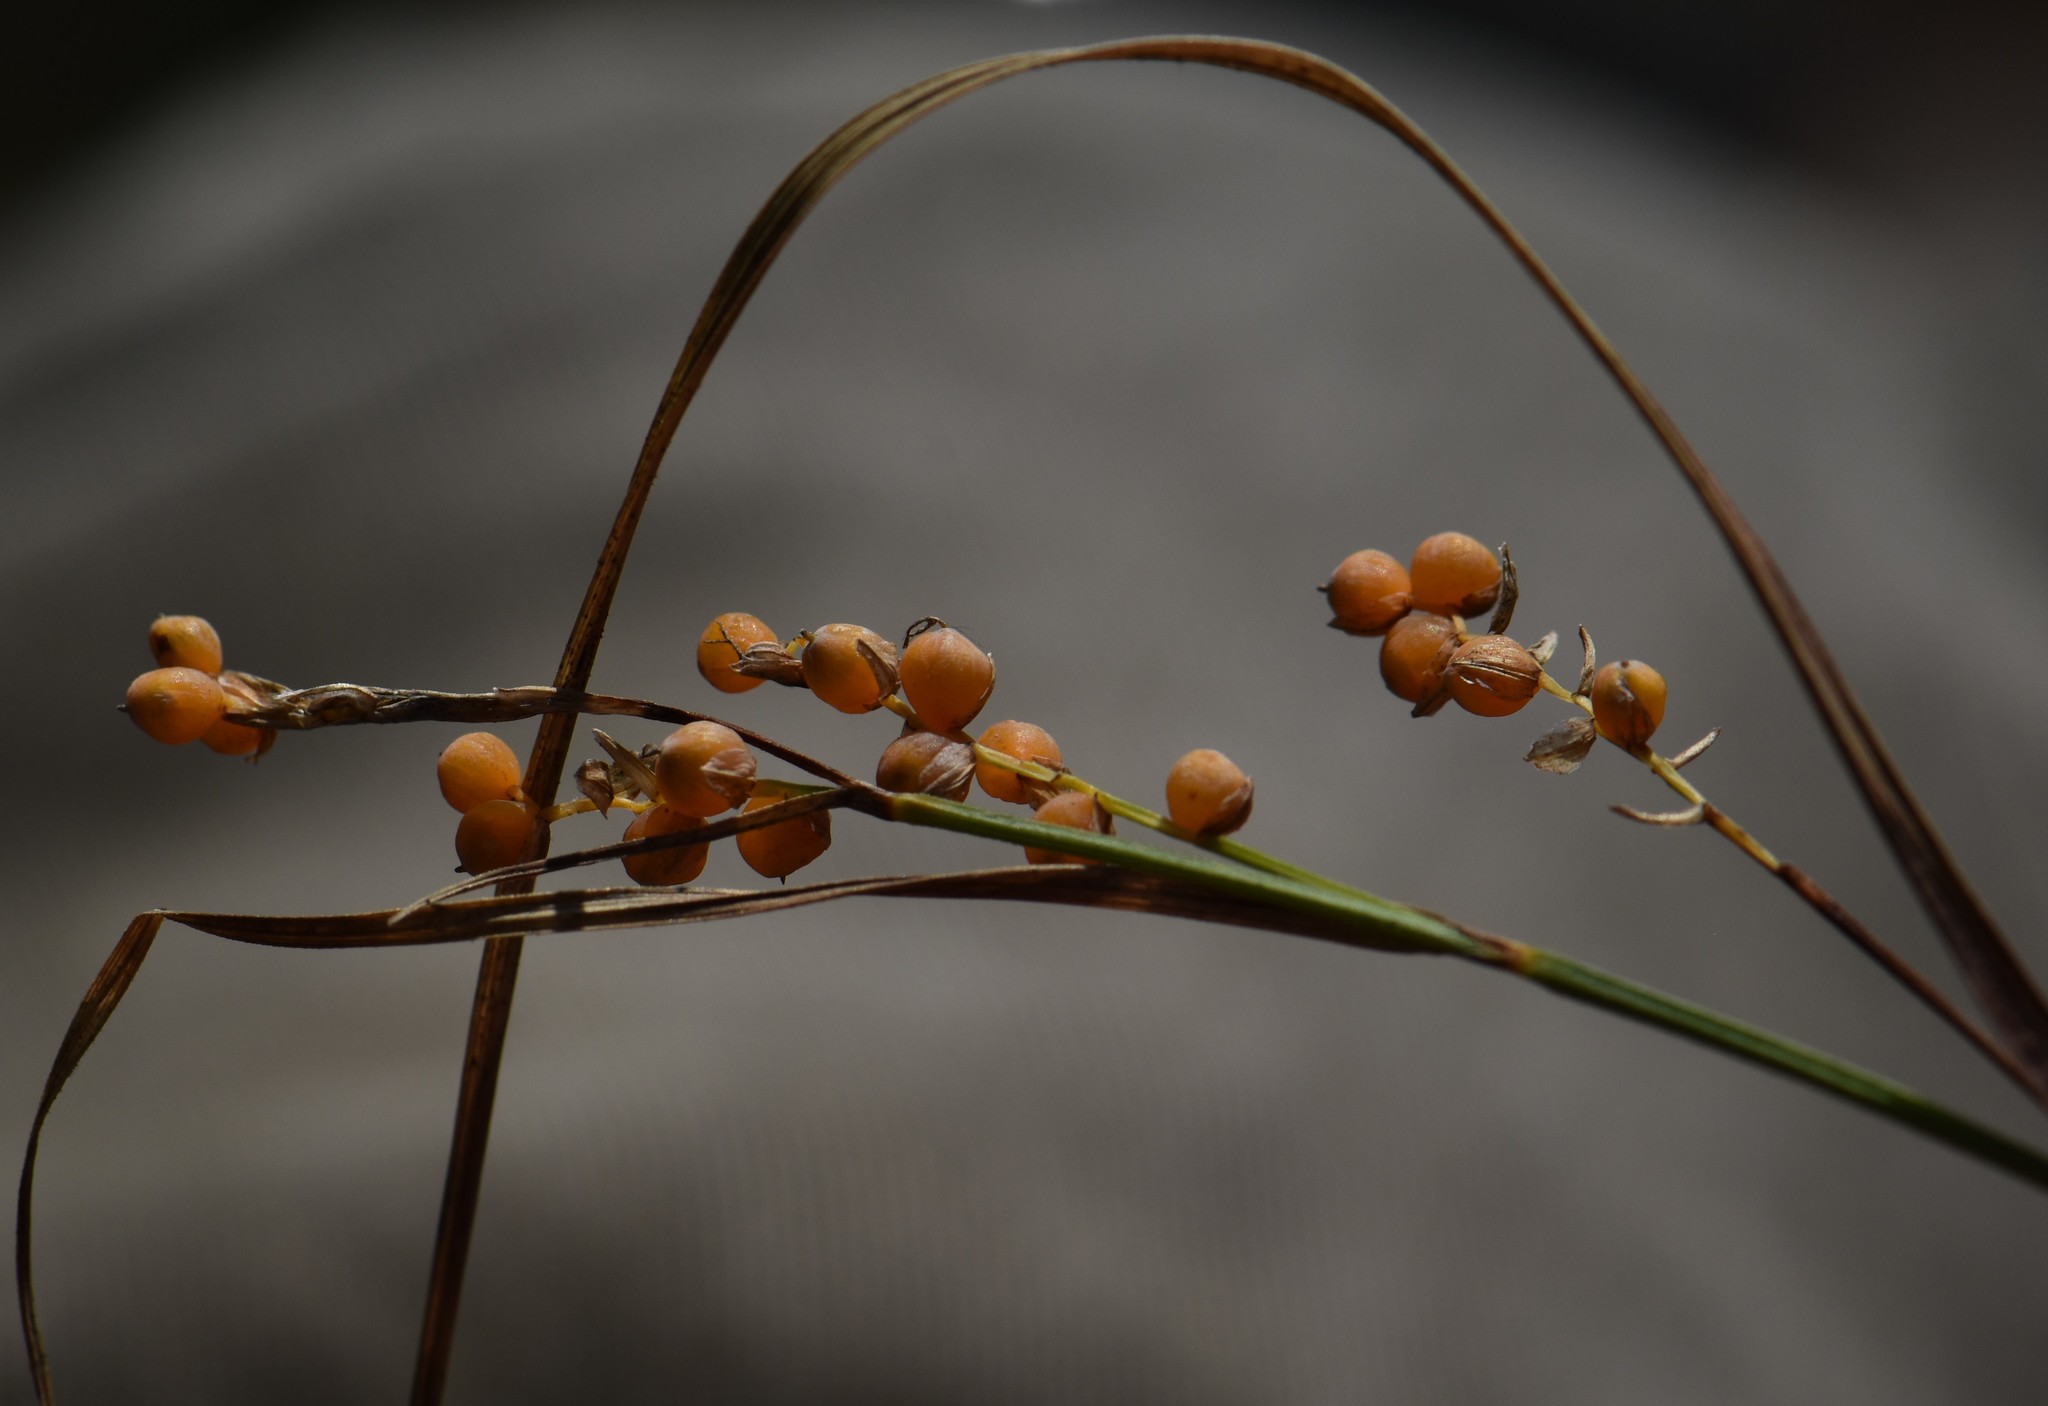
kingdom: Plantae
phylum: Tracheophyta
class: Liliopsida
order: Poales
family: Cyperaceae
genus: Carex
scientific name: Carex aurea
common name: Golden sedge
